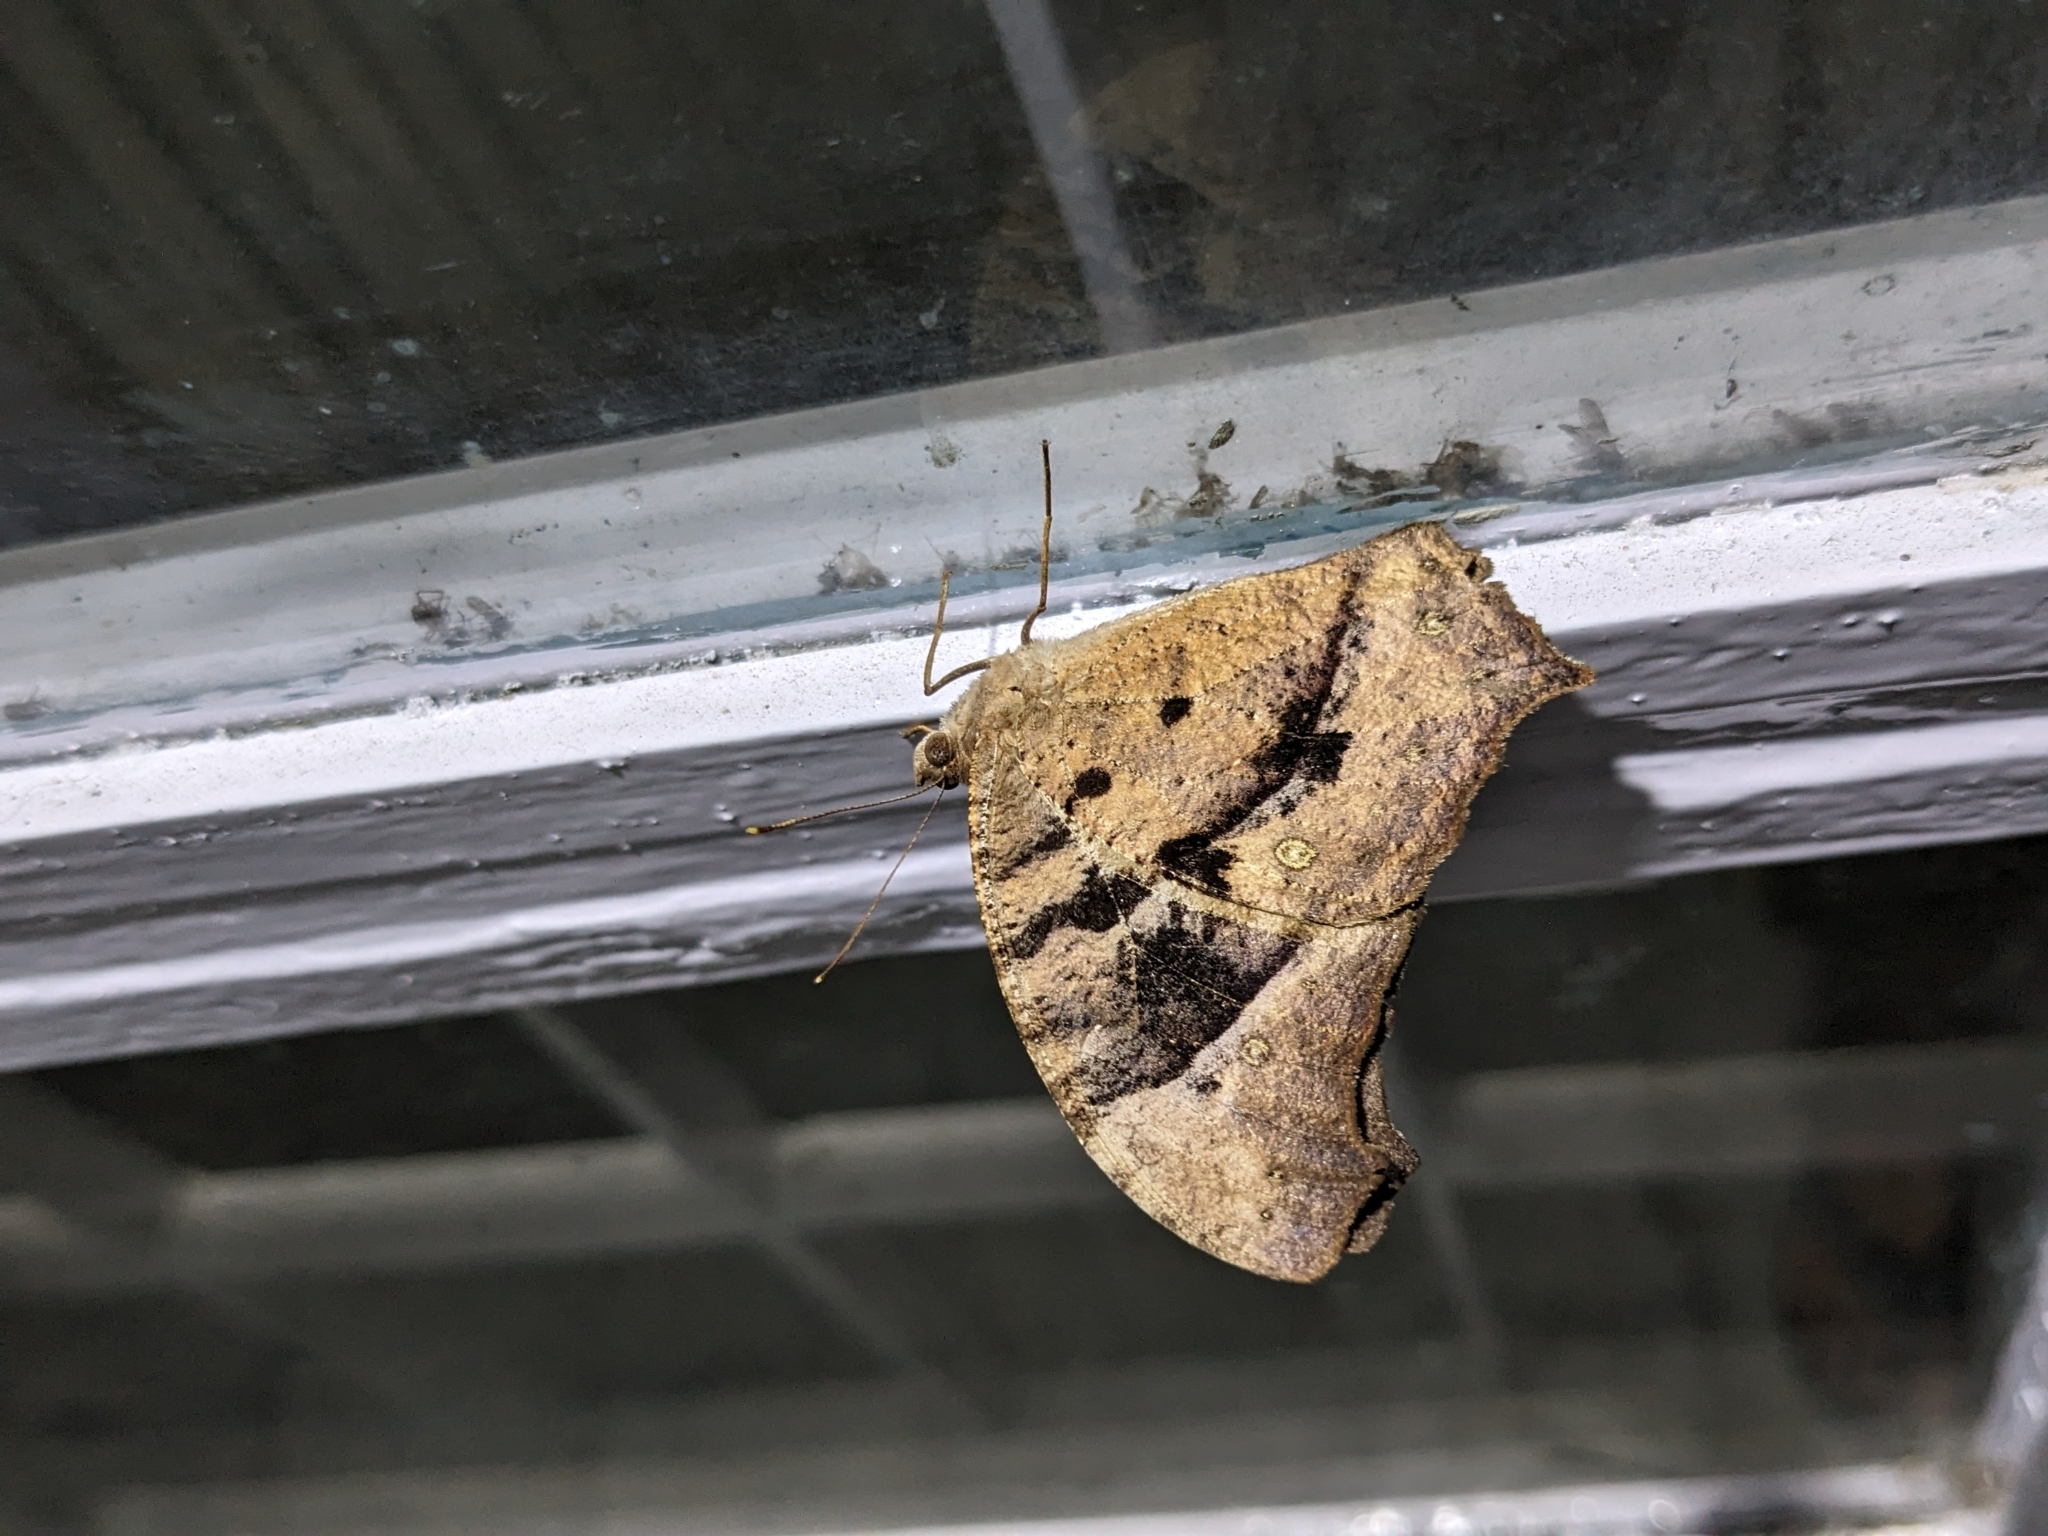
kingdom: Animalia
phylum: Arthropoda
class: Insecta
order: Lepidoptera
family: Nymphalidae
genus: Melanitis
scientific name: Melanitis leda
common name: Twilight brown
